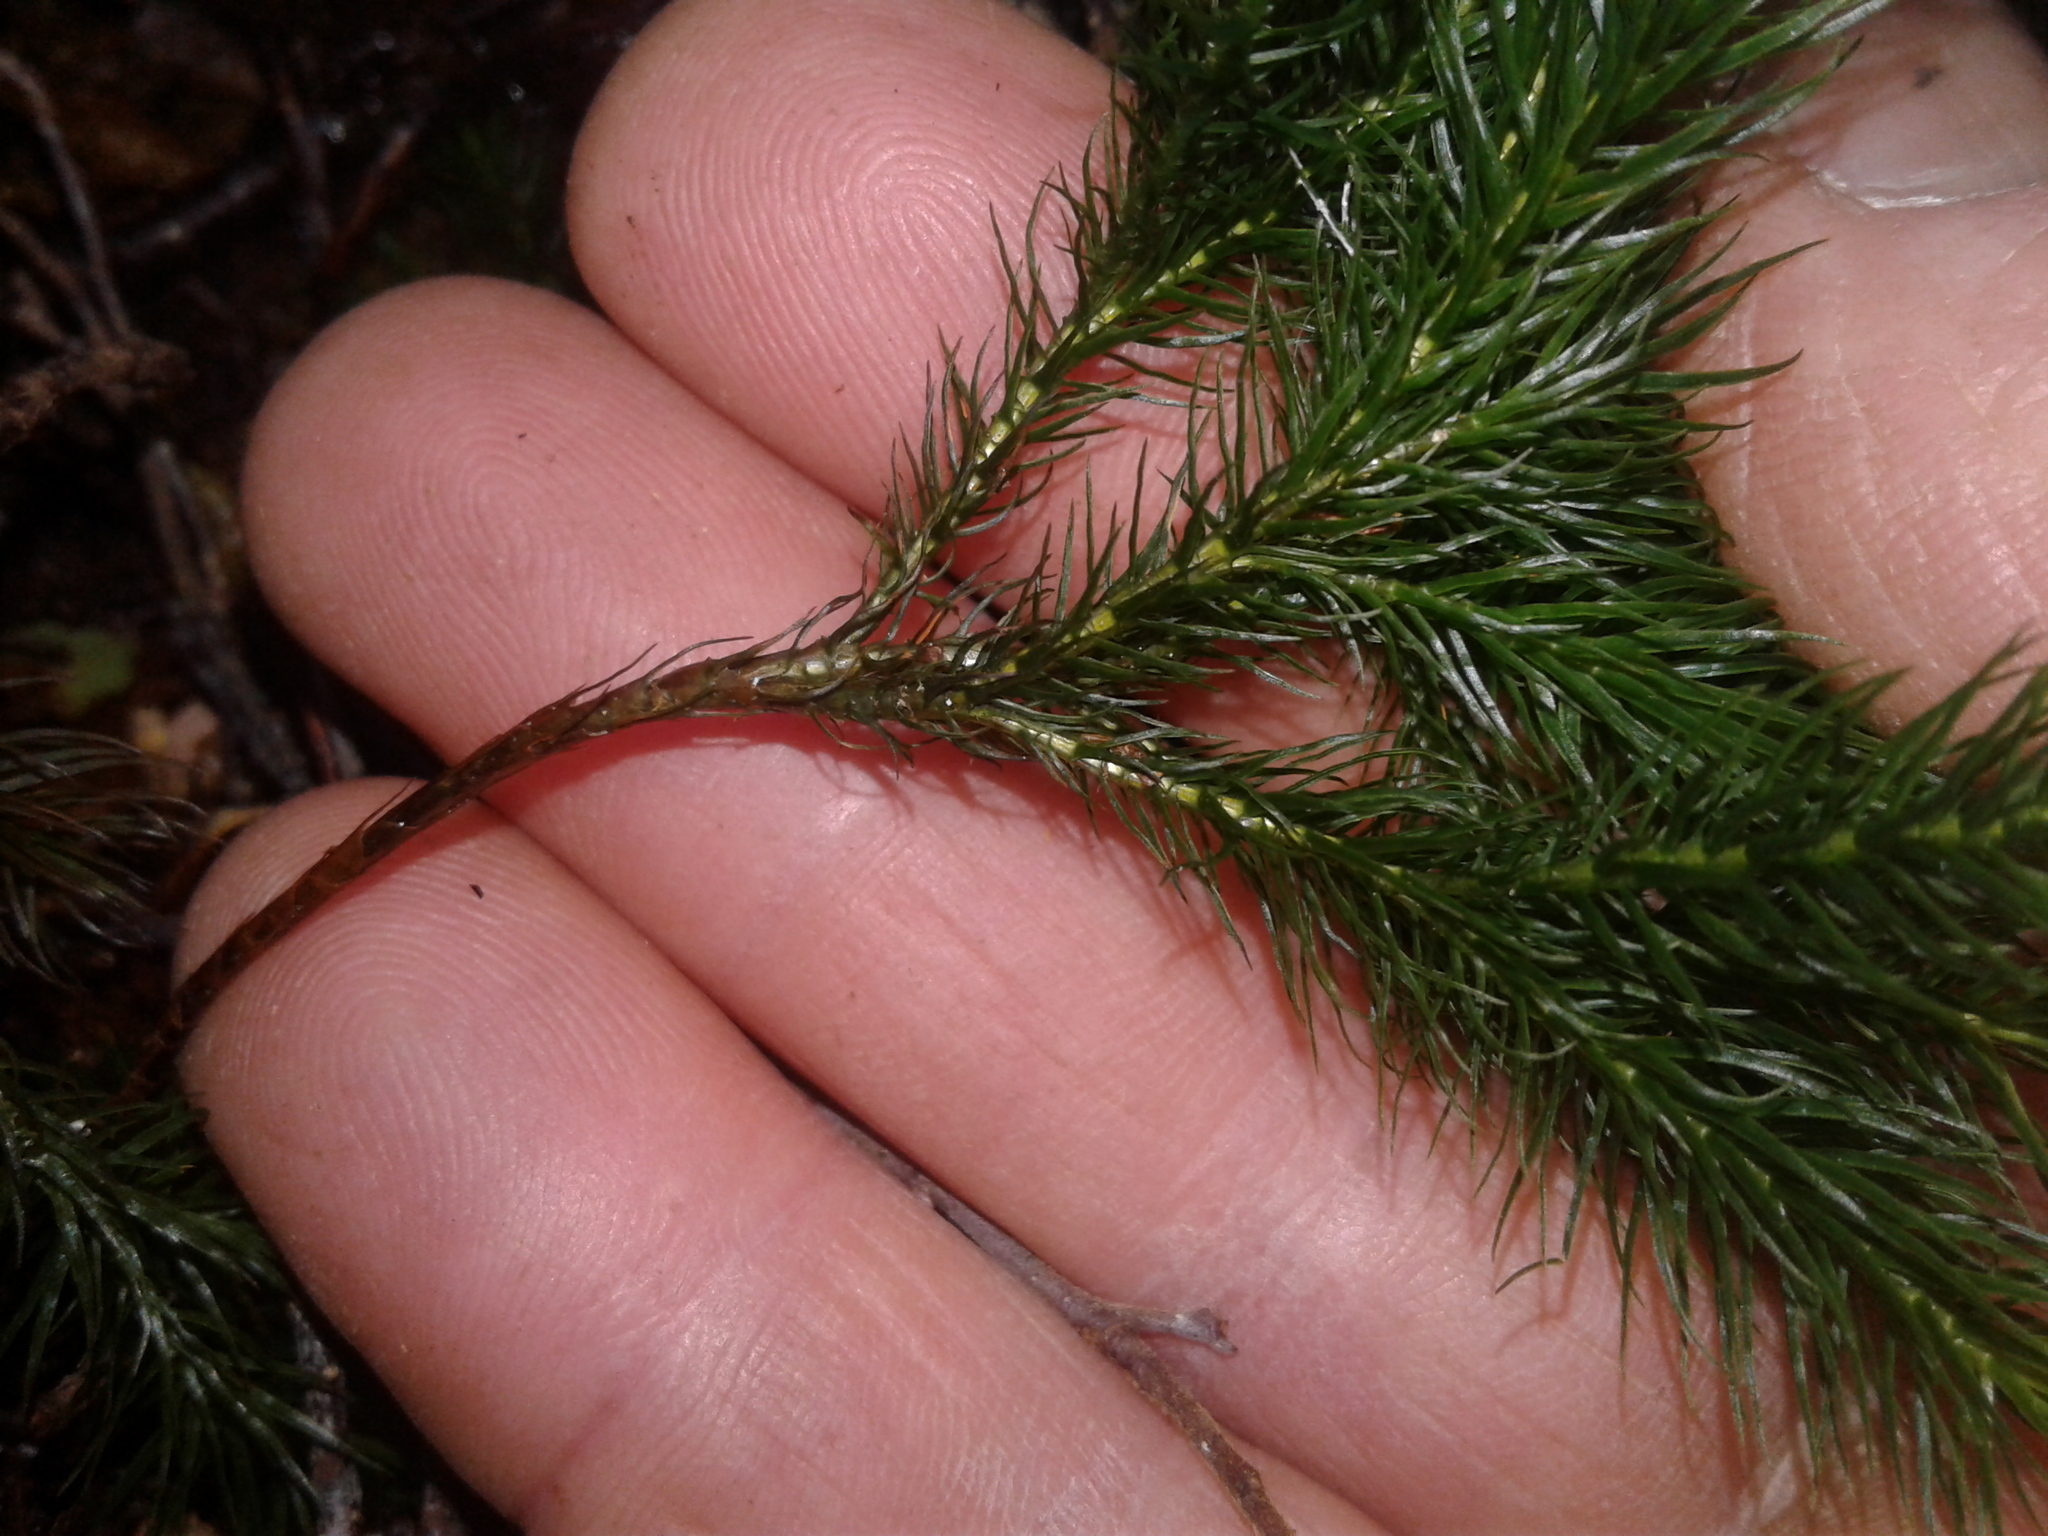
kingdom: Plantae
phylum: Bryophyta
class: Polytrichopsida
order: Polytrichales
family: Polytrichaceae
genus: Dendroligotrichum
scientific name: Dendroligotrichum tongariroense
